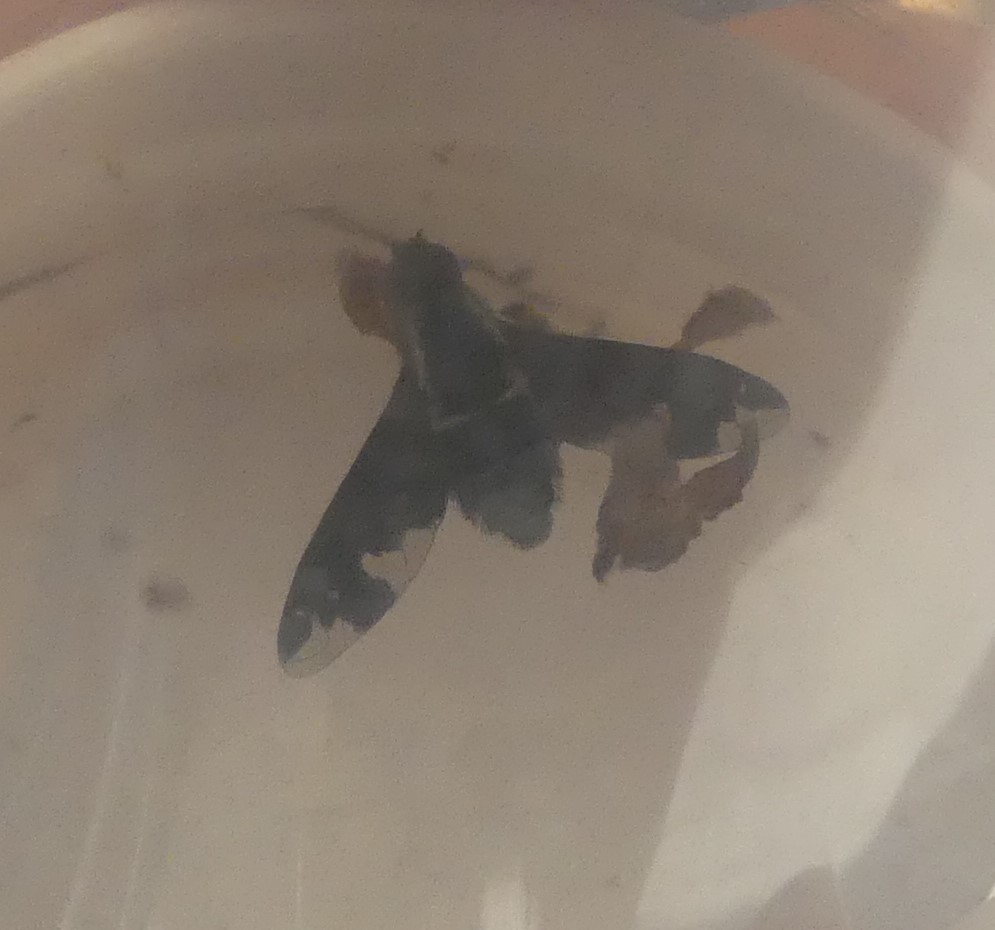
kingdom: Animalia
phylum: Arthropoda
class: Insecta
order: Diptera
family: Bombyliidae
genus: Hemipenthes
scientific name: Hemipenthes maura
